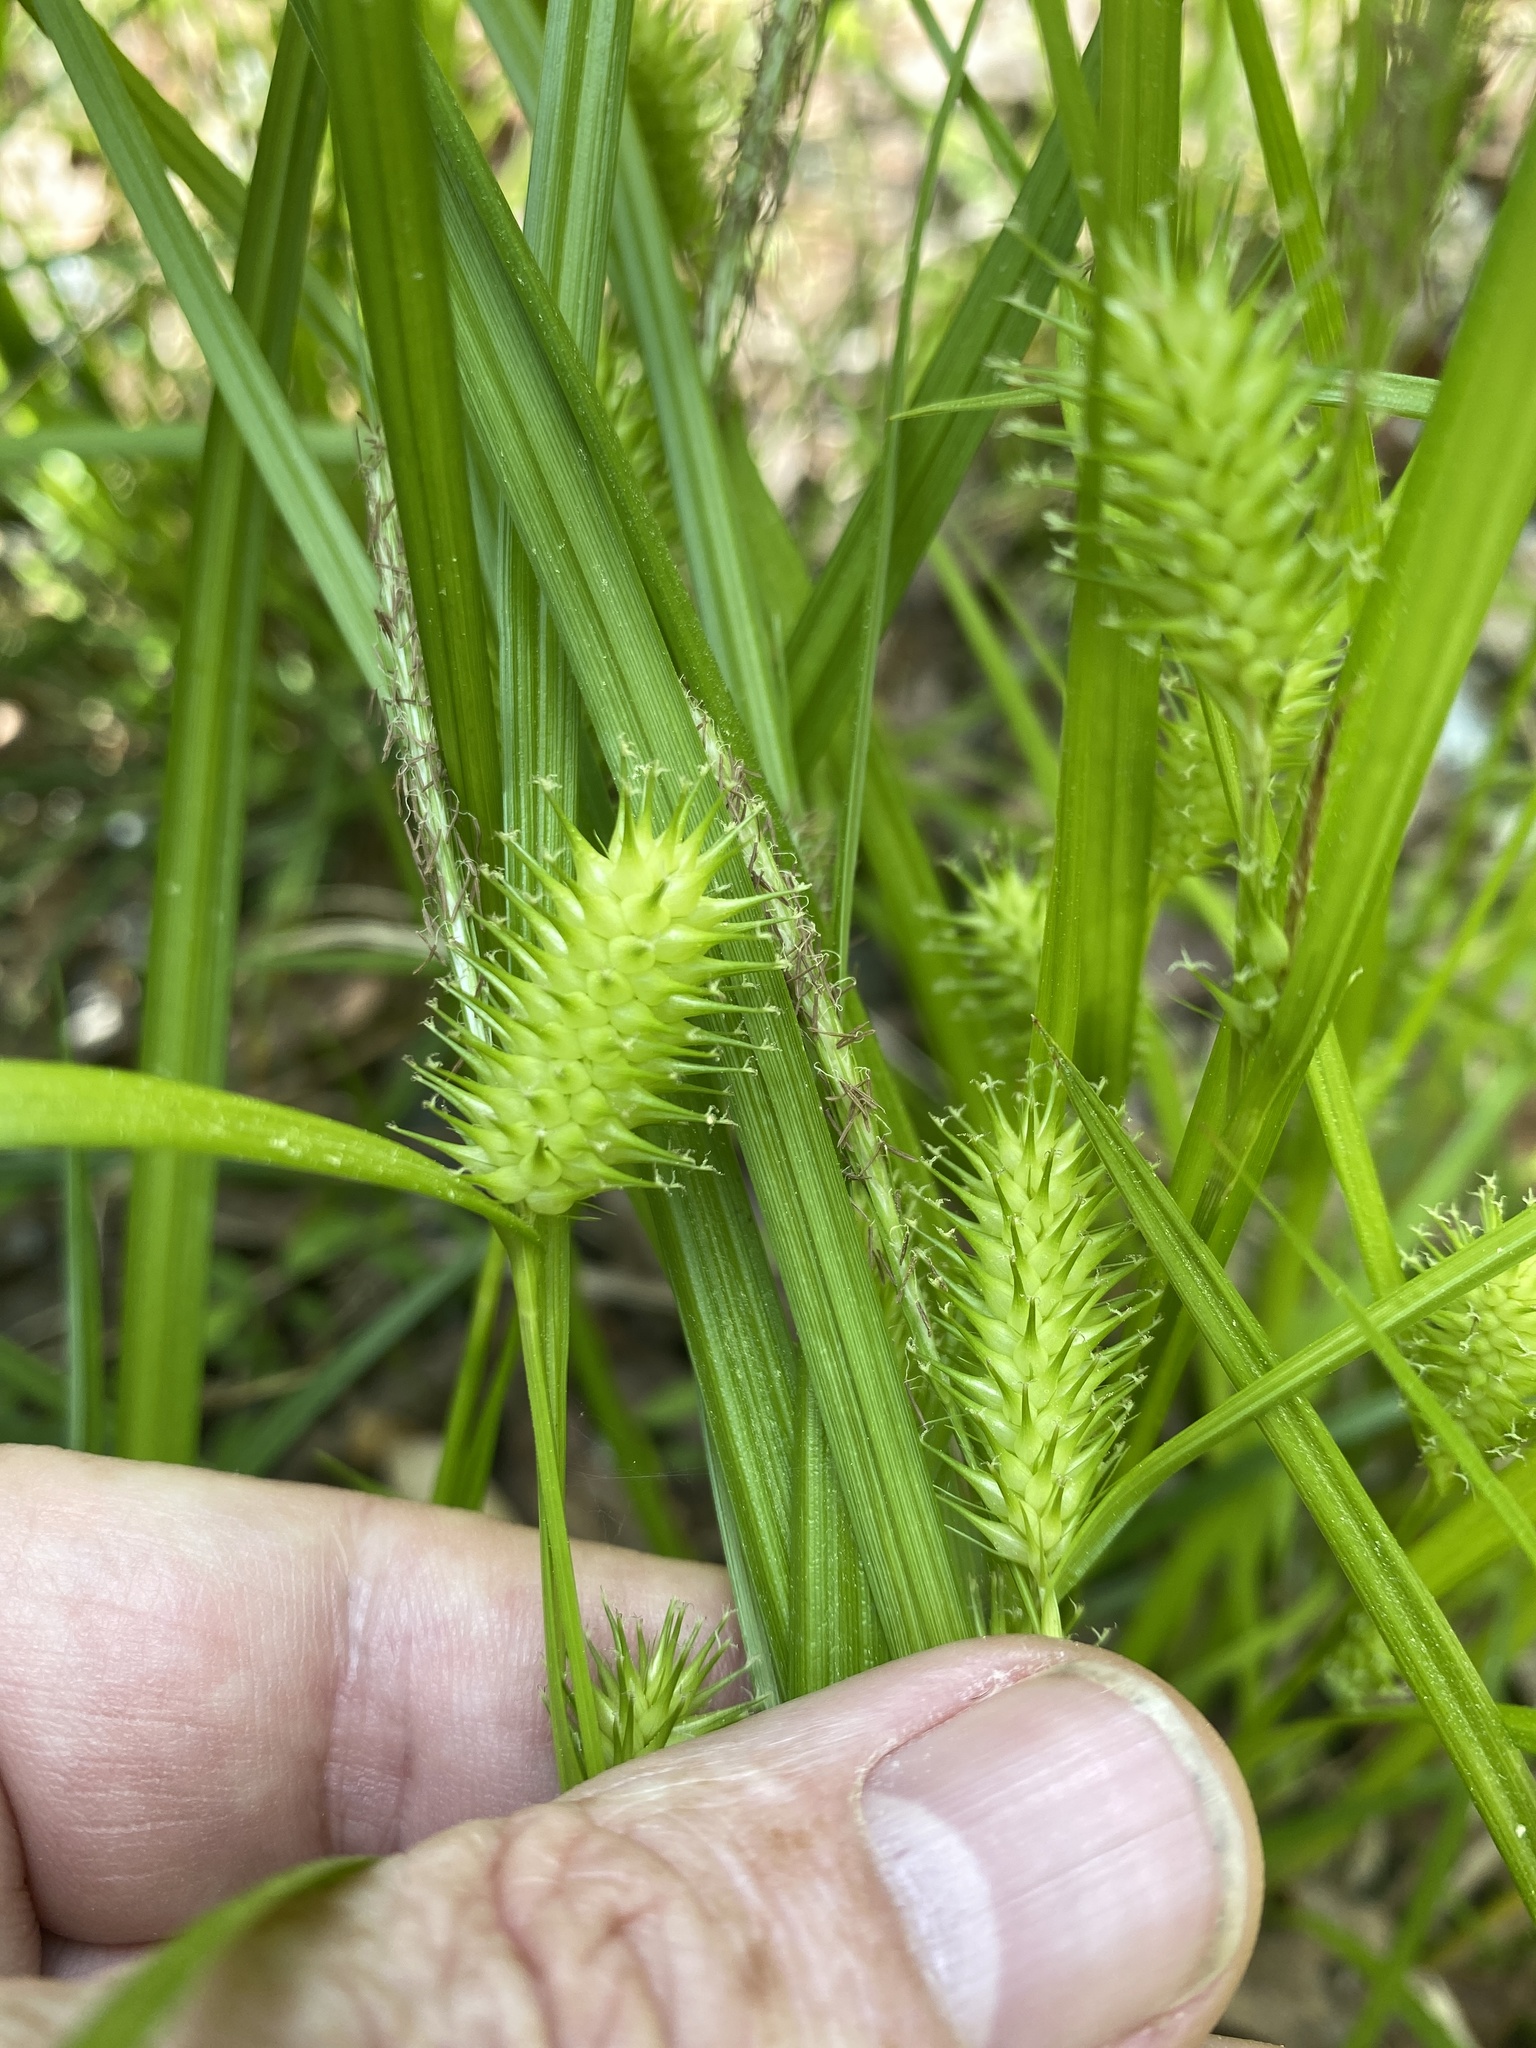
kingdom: Plantae
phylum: Tracheophyta
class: Liliopsida
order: Poales
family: Cyperaceae
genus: Carex
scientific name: Carex lurida
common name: Sallow sedge
